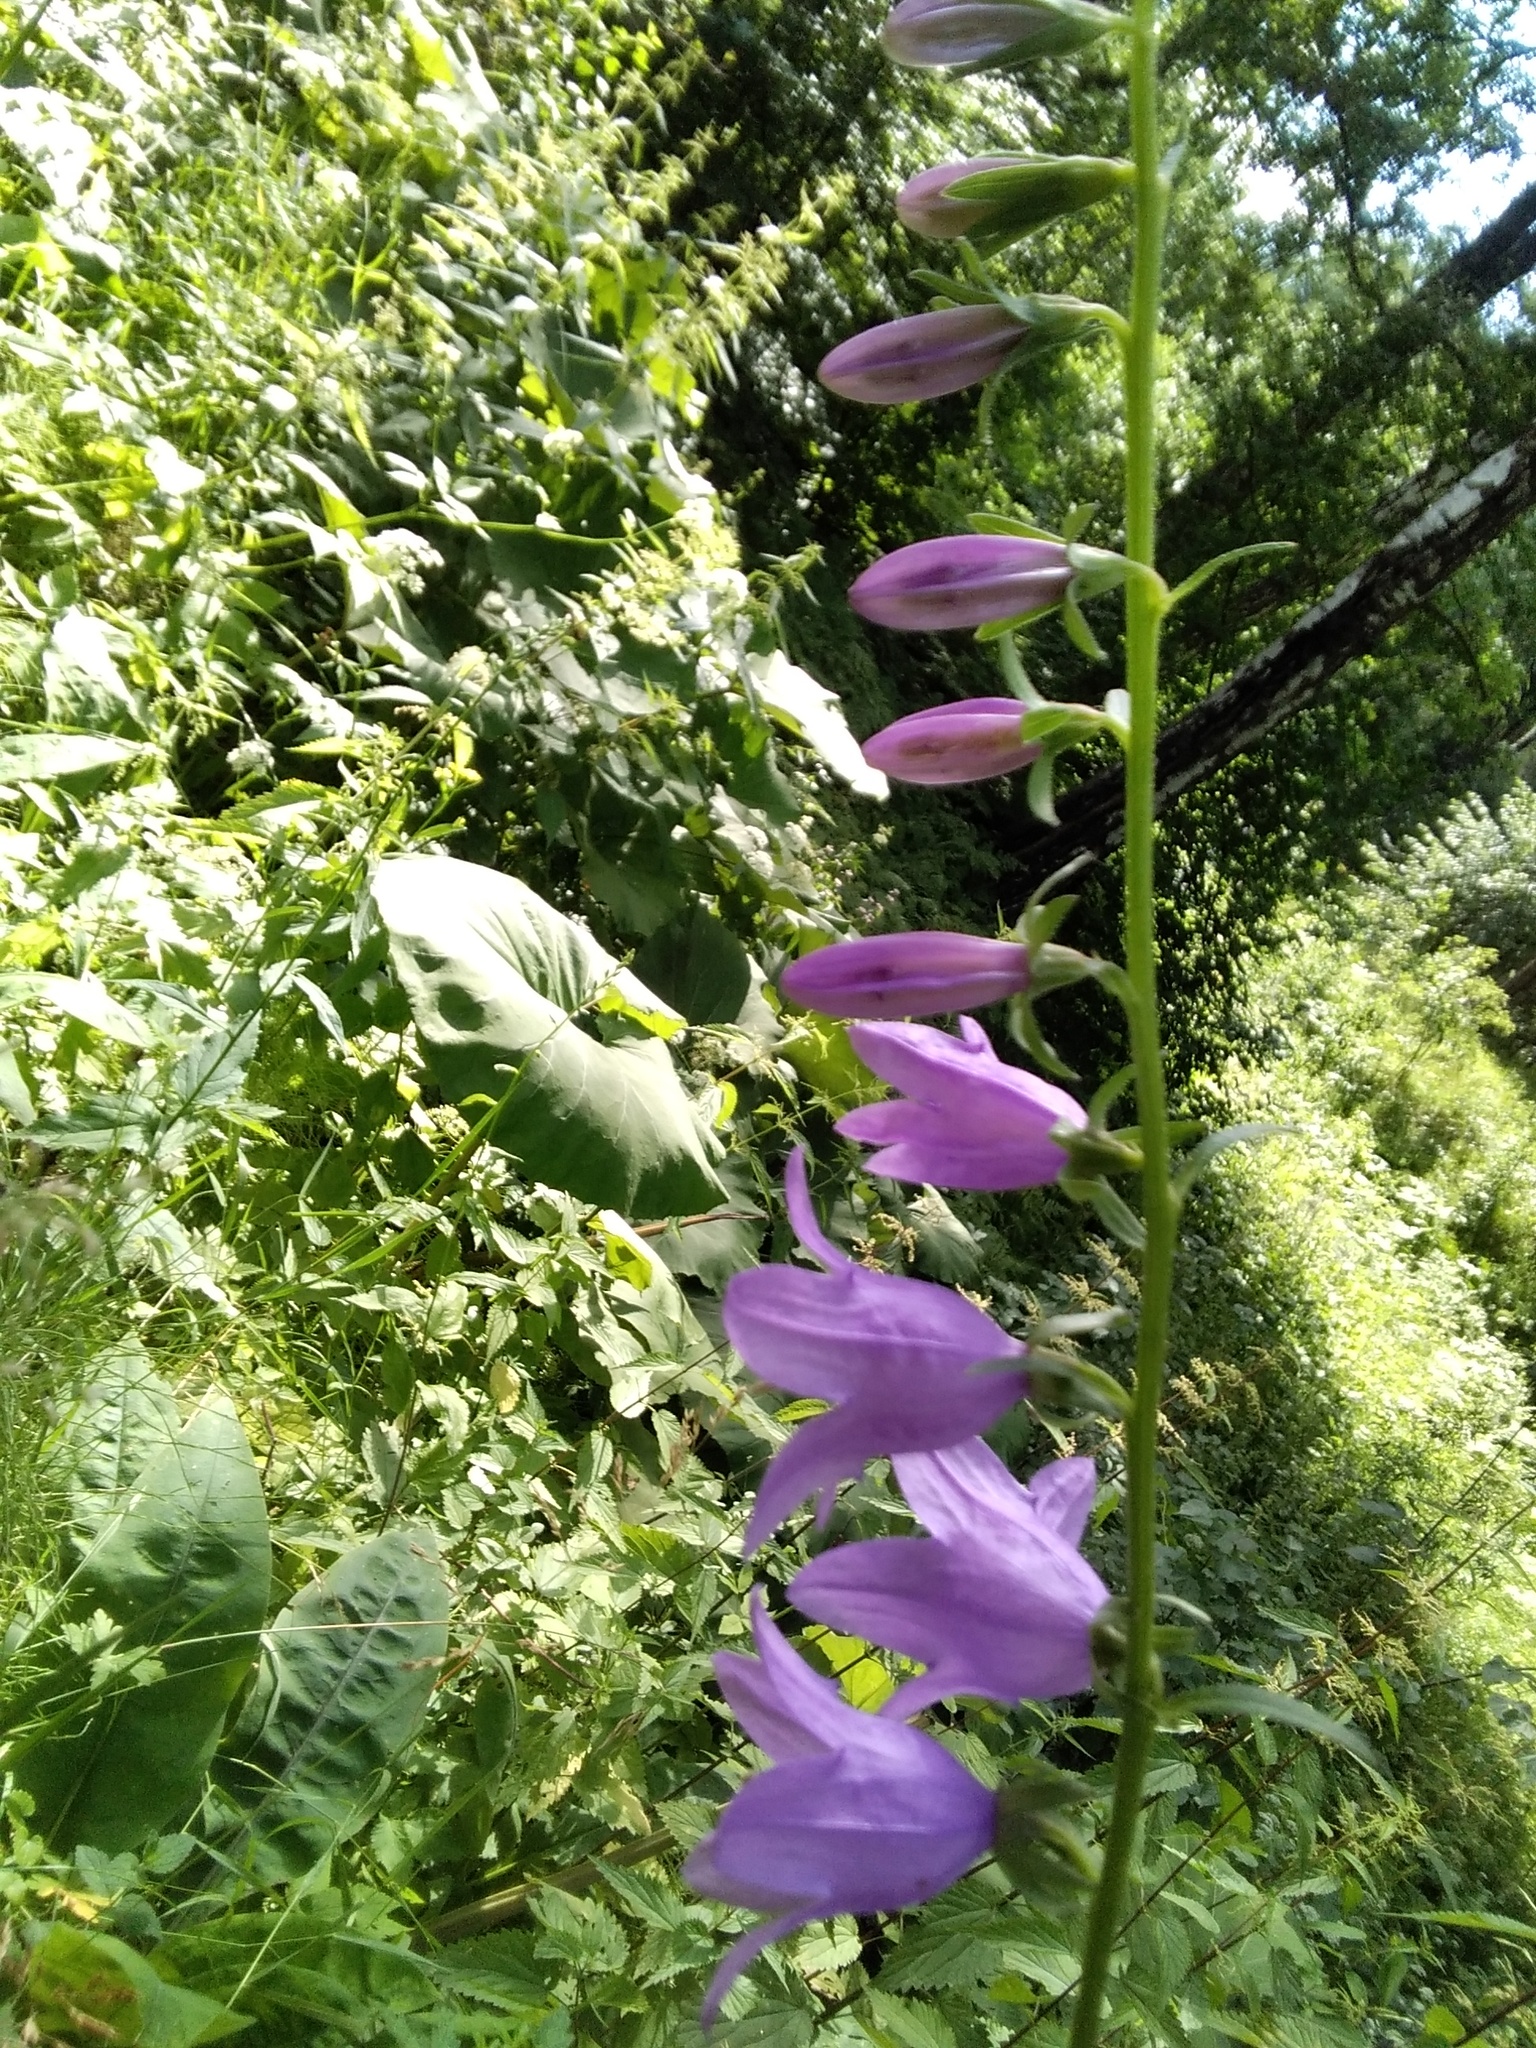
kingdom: Plantae
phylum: Tracheophyta
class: Magnoliopsida
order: Asterales
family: Campanulaceae
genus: Campanula
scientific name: Campanula rapunculoides
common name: Creeping bellflower
